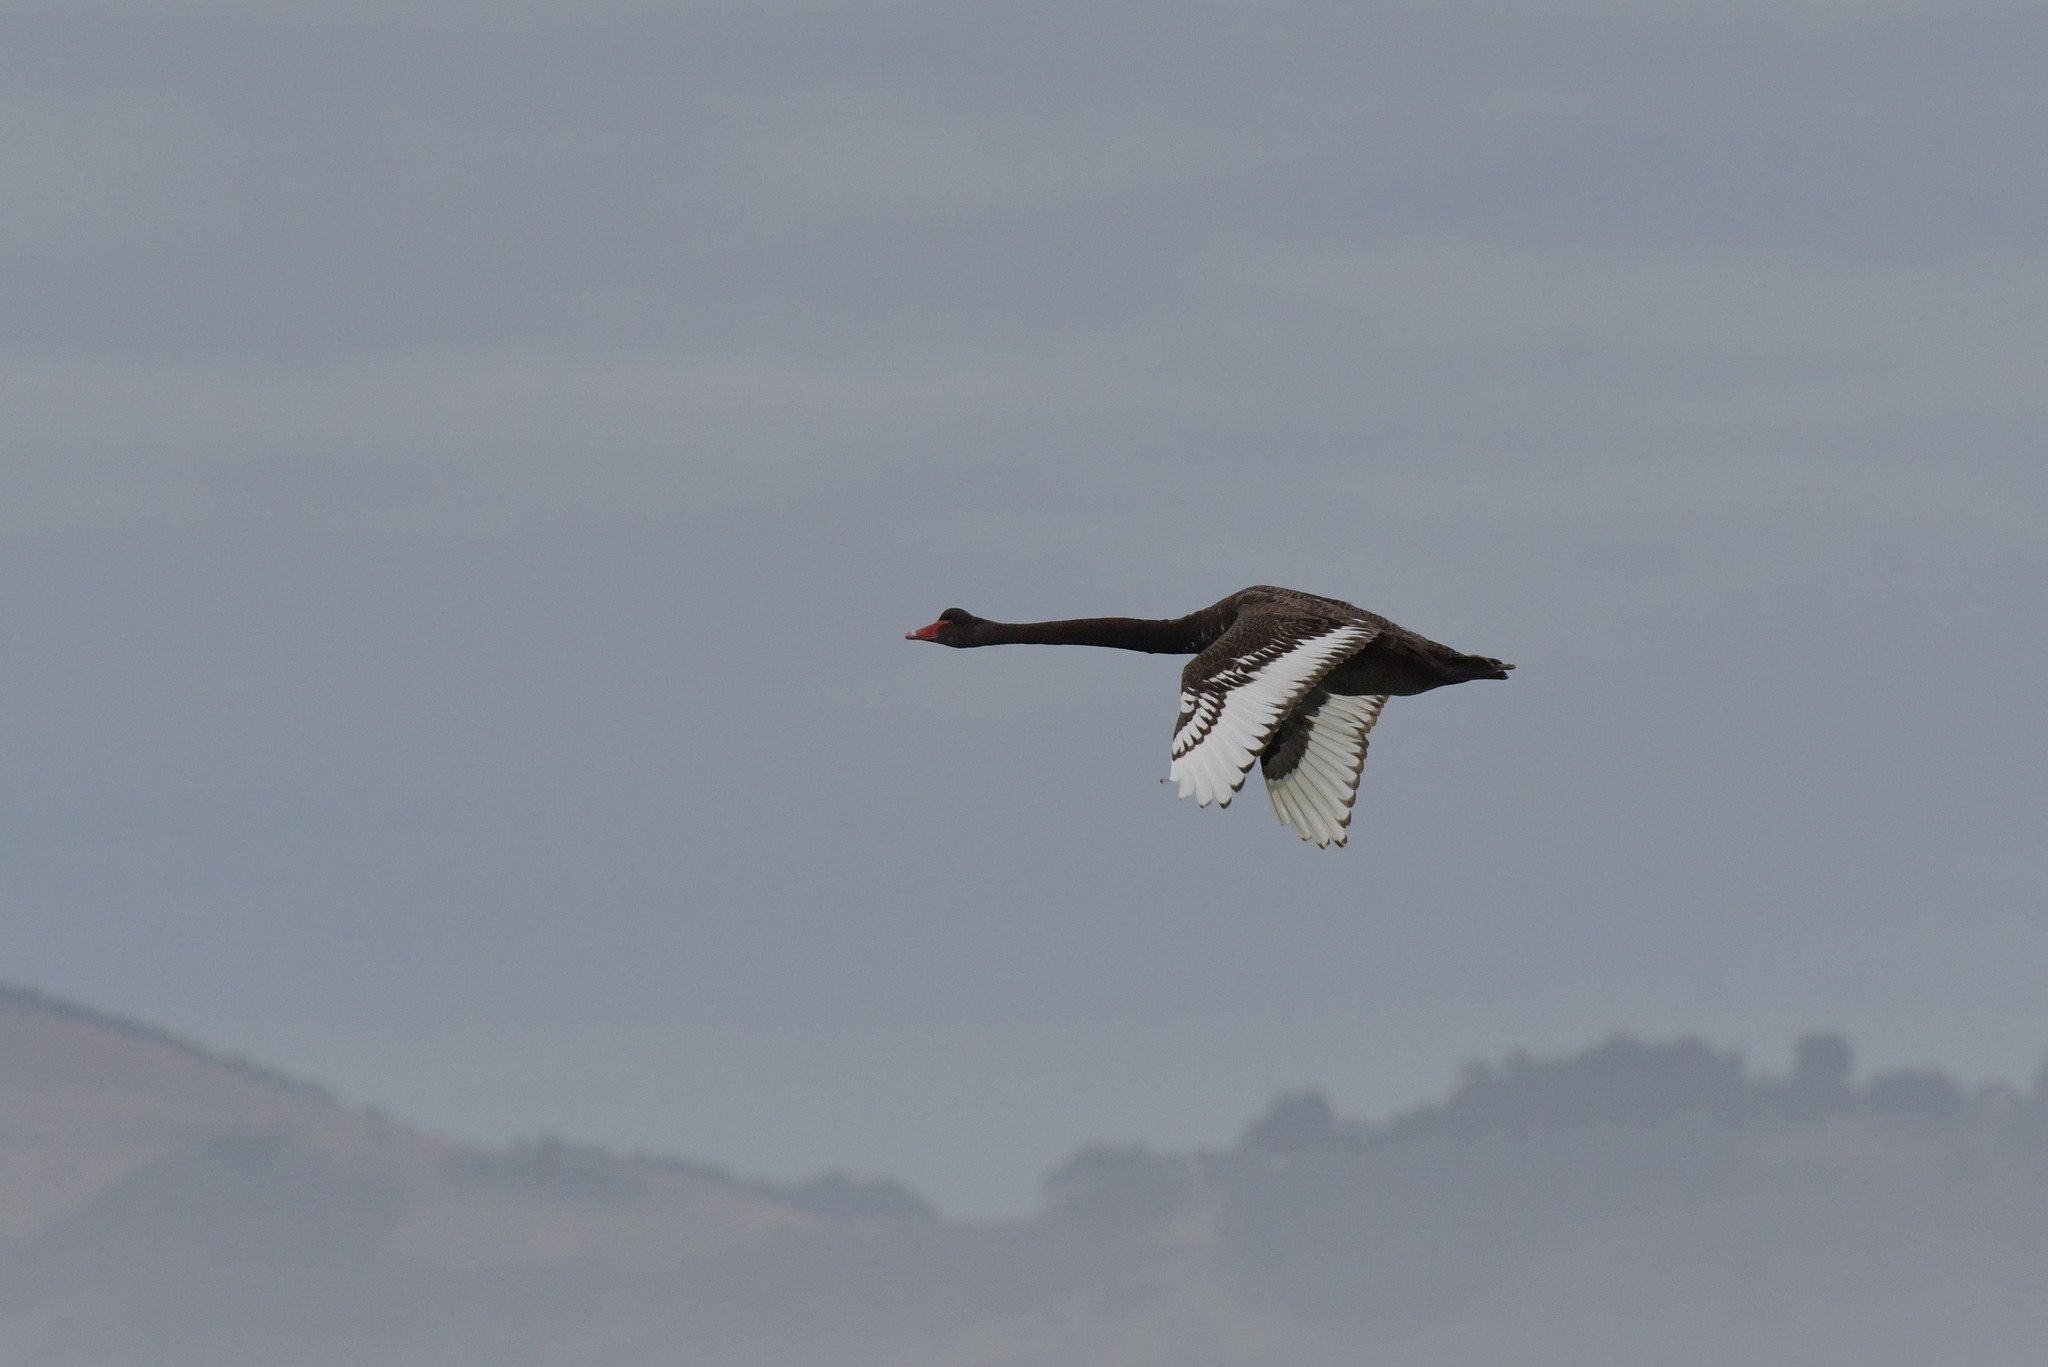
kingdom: Animalia
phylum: Chordata
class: Aves
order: Anseriformes
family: Anatidae
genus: Cygnus
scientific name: Cygnus atratus
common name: Black swan
